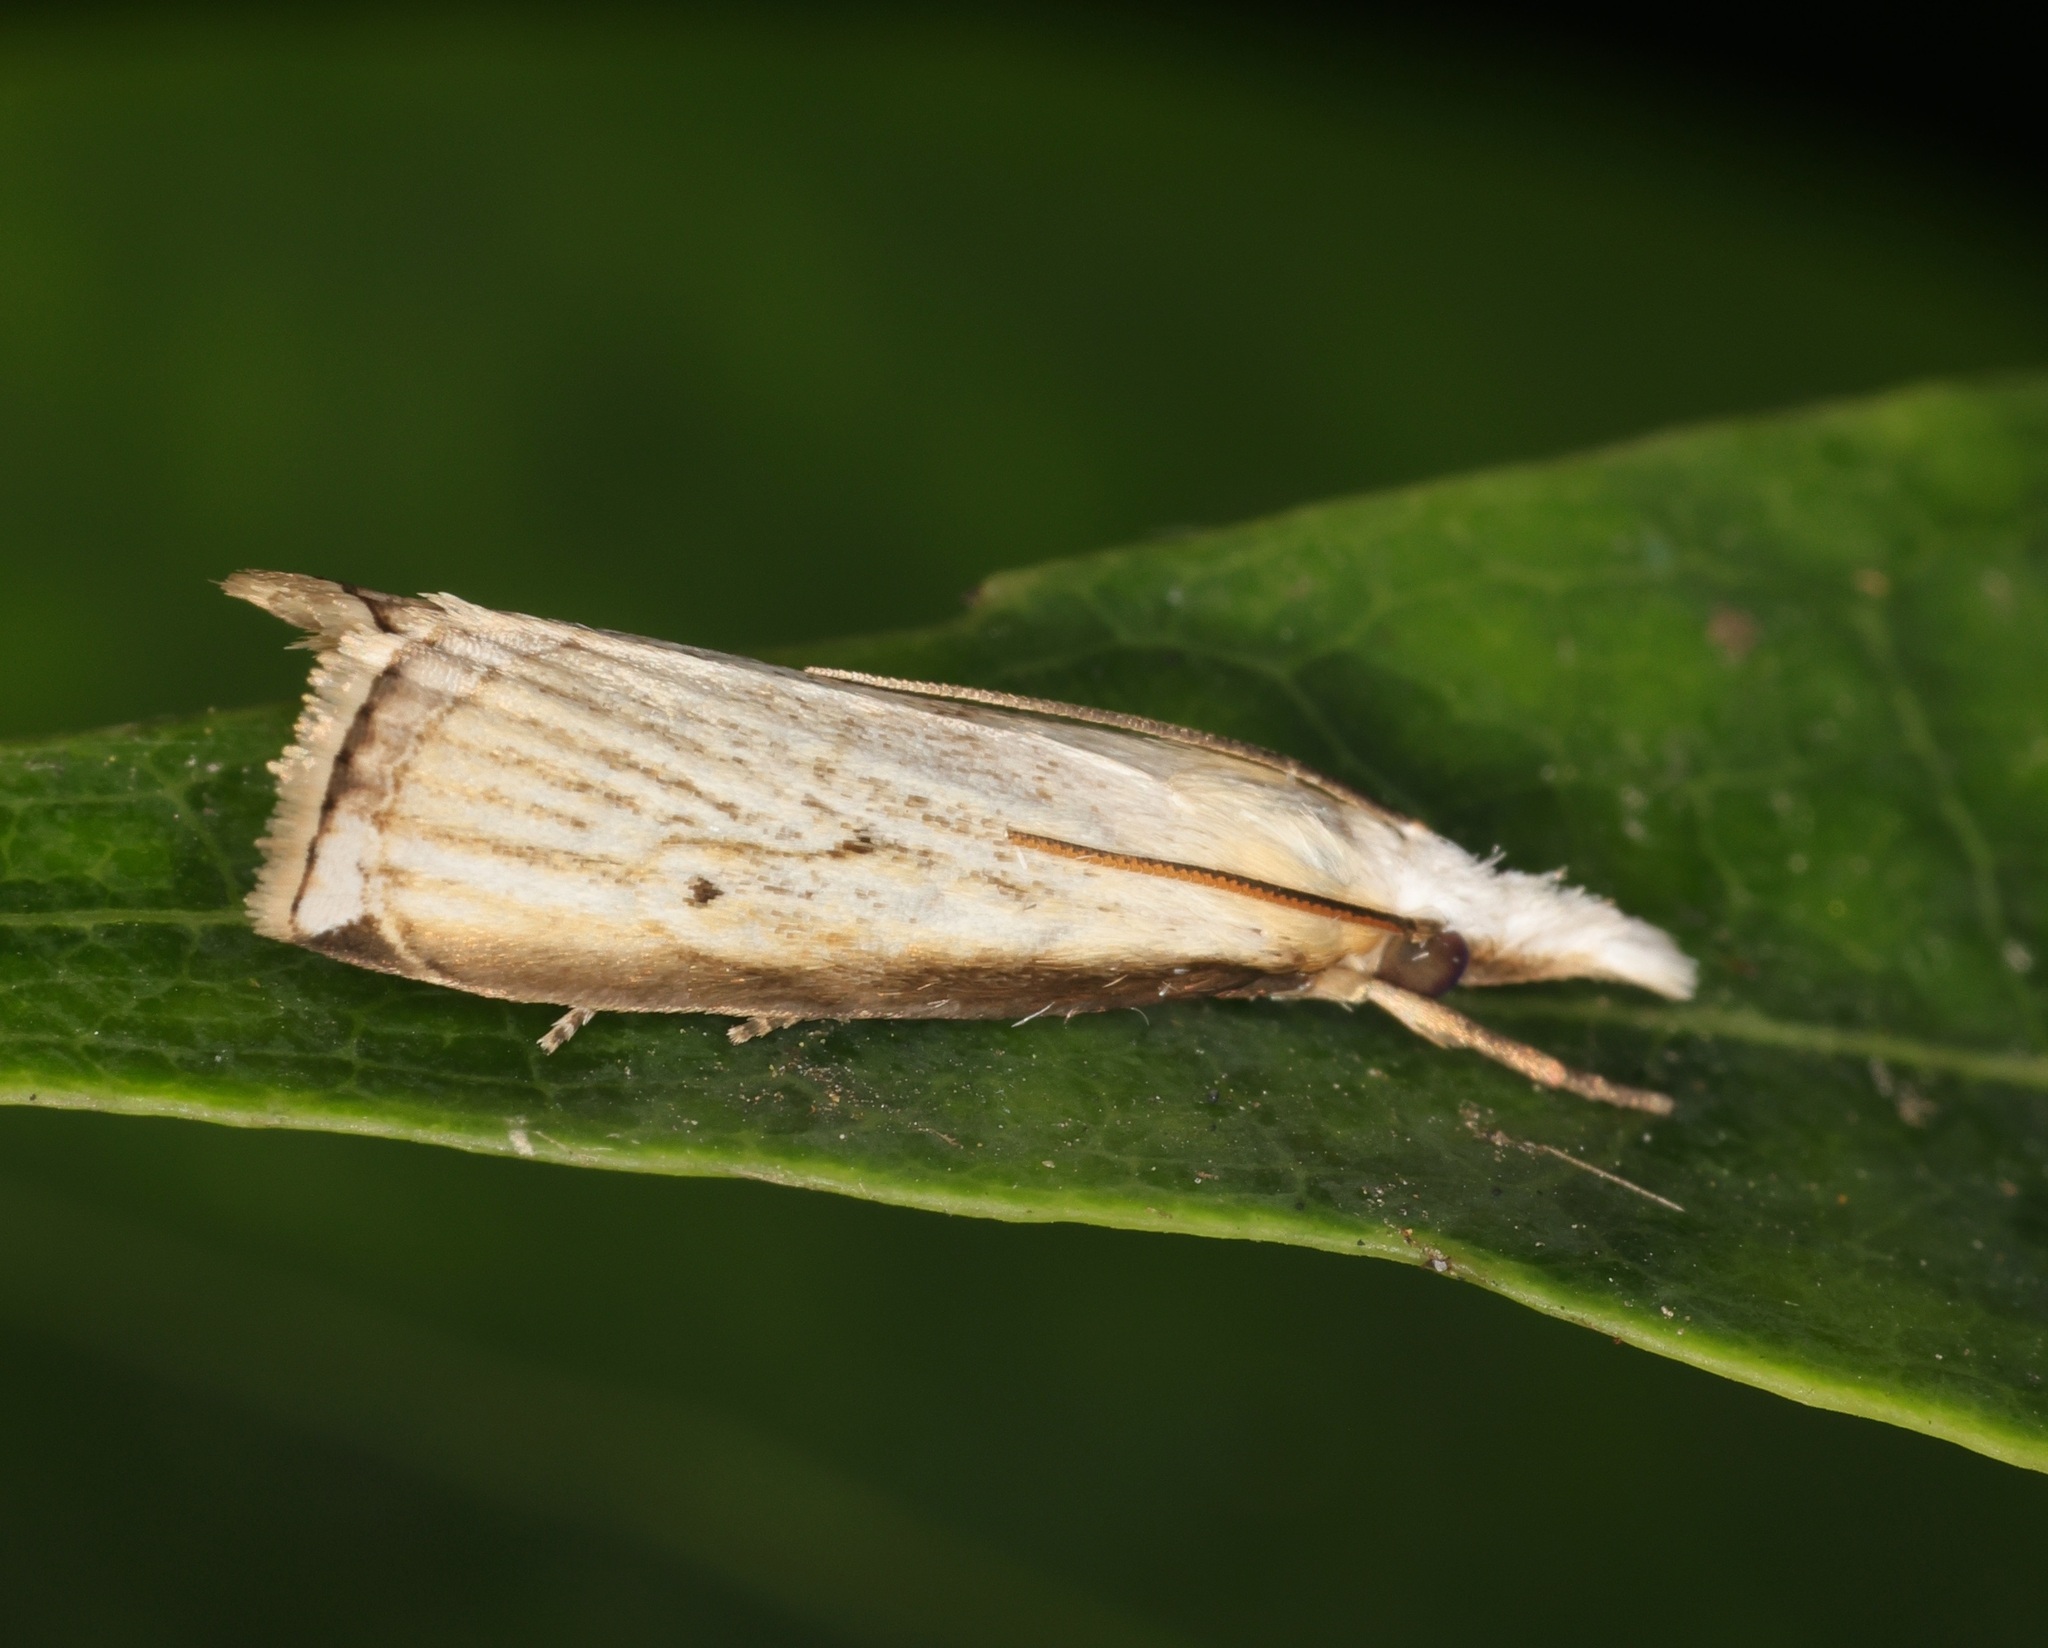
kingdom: Animalia
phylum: Arthropoda
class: Insecta
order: Lepidoptera
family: Crambidae
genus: Calamotropha
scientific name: Calamotropha formosella
